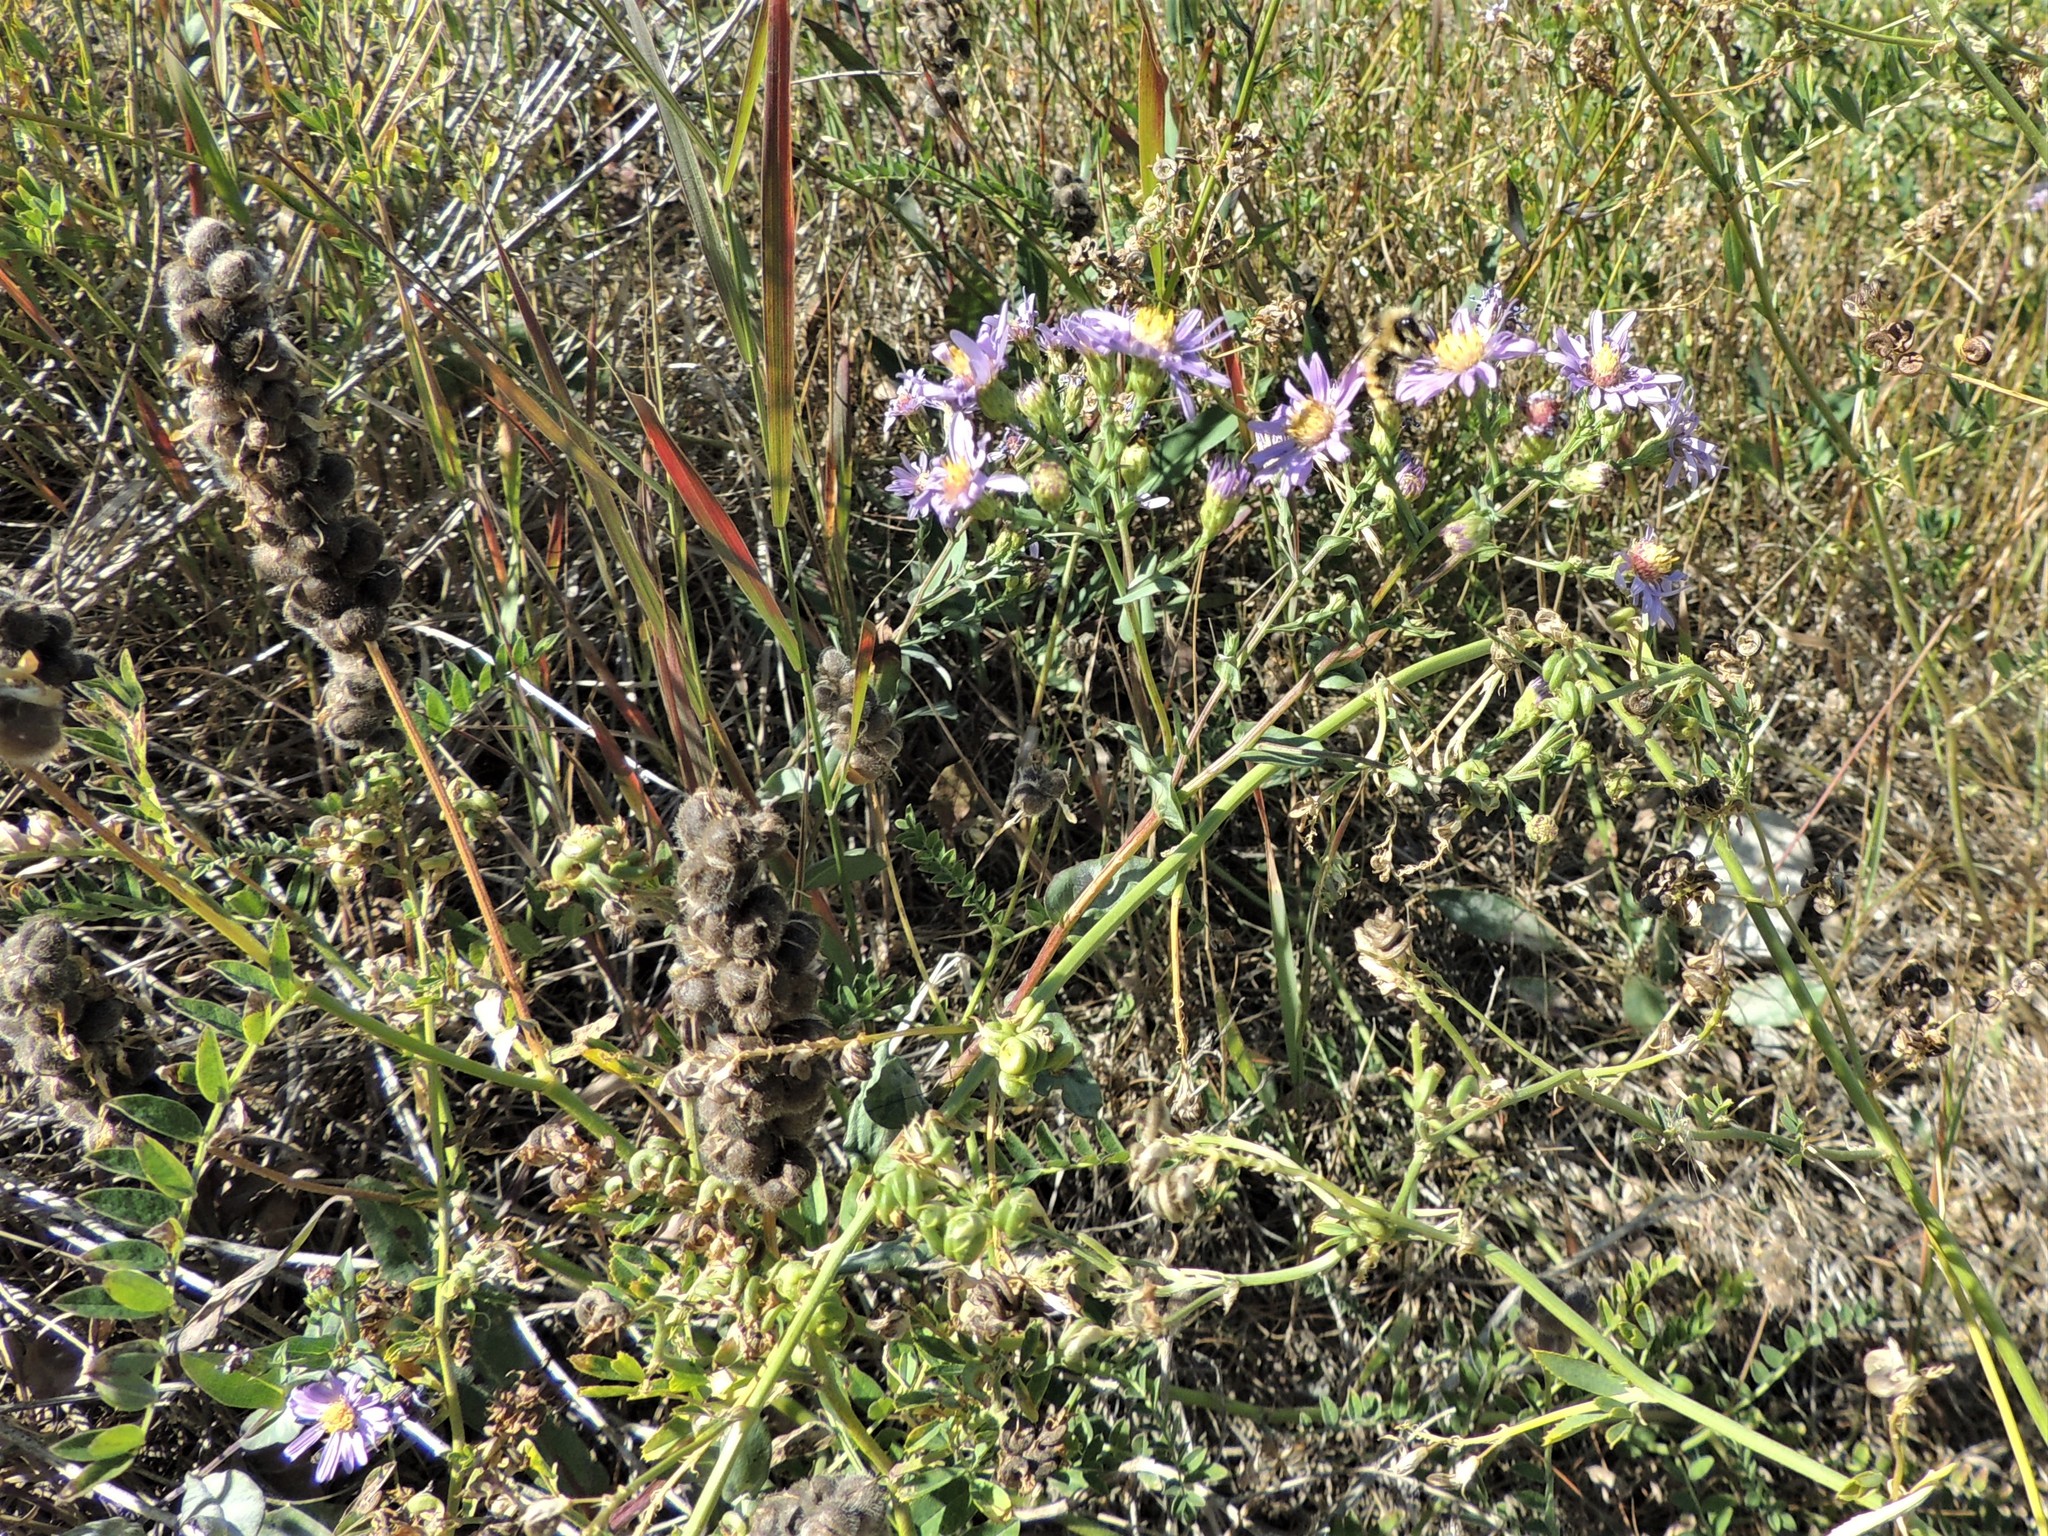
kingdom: Plantae
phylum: Tracheophyta
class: Magnoliopsida
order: Asterales
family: Asteraceae
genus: Symphyotrichum
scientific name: Symphyotrichum laeve
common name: Glaucous aster
